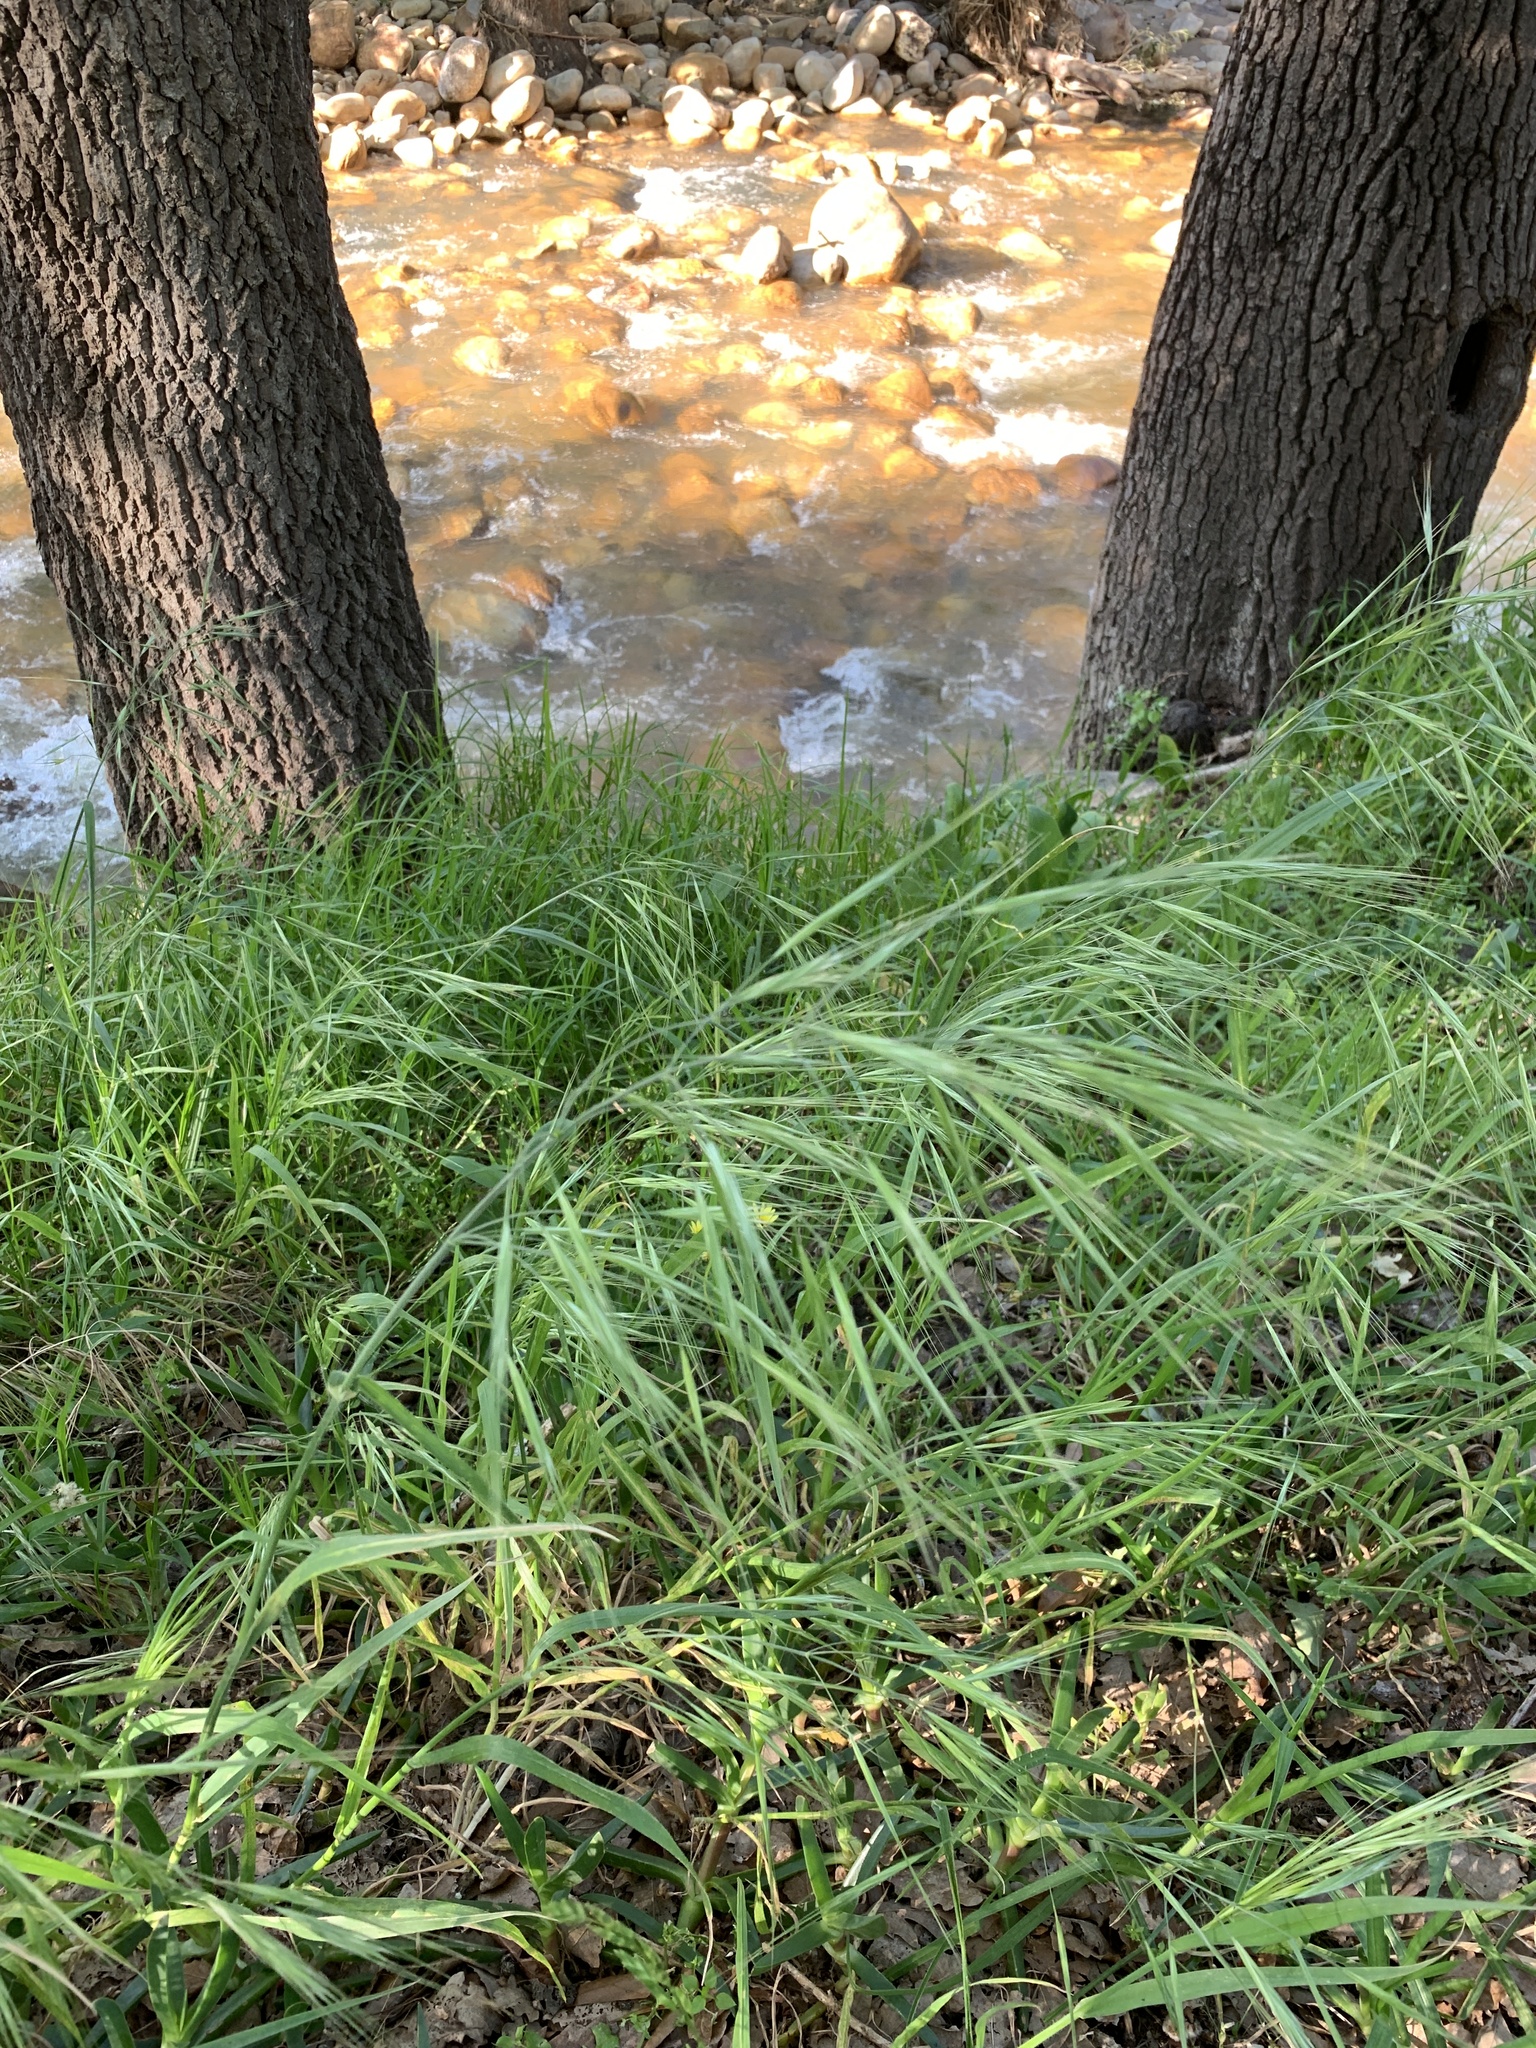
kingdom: Plantae
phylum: Tracheophyta
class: Liliopsida
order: Poales
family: Poaceae
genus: Bromus
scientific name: Bromus diandrus
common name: Ripgut brome
